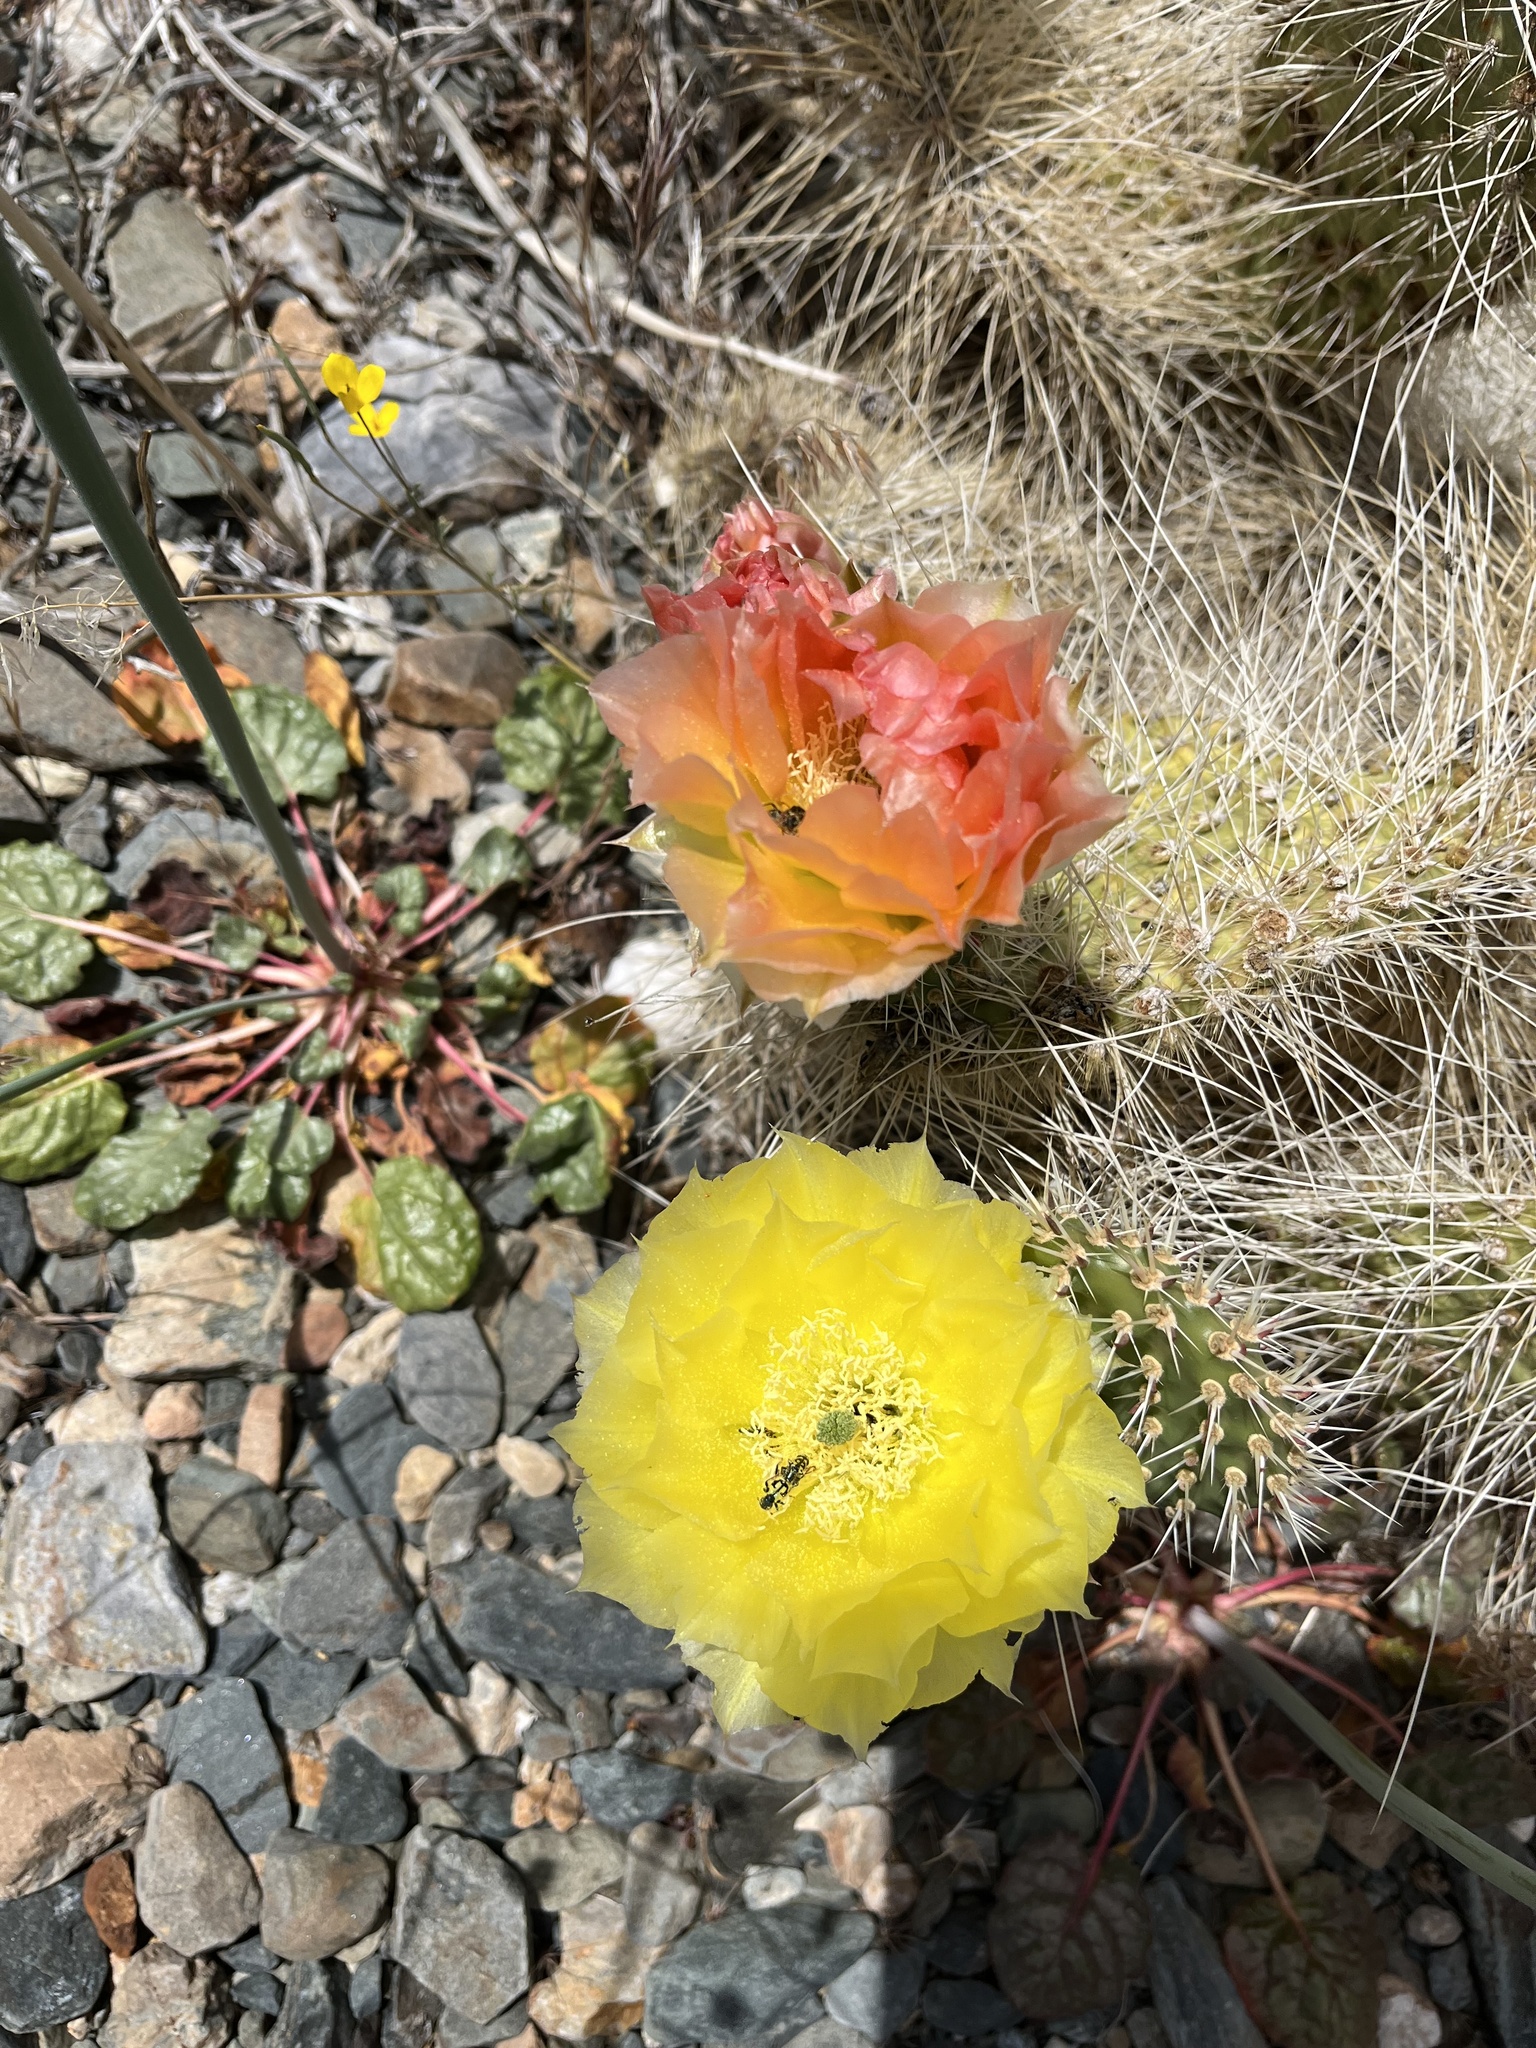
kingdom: Plantae
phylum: Tracheophyta
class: Magnoliopsida
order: Caryophyllales
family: Cactaceae
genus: Opuntia
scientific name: Opuntia polyacantha
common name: Plains prickly-pear
